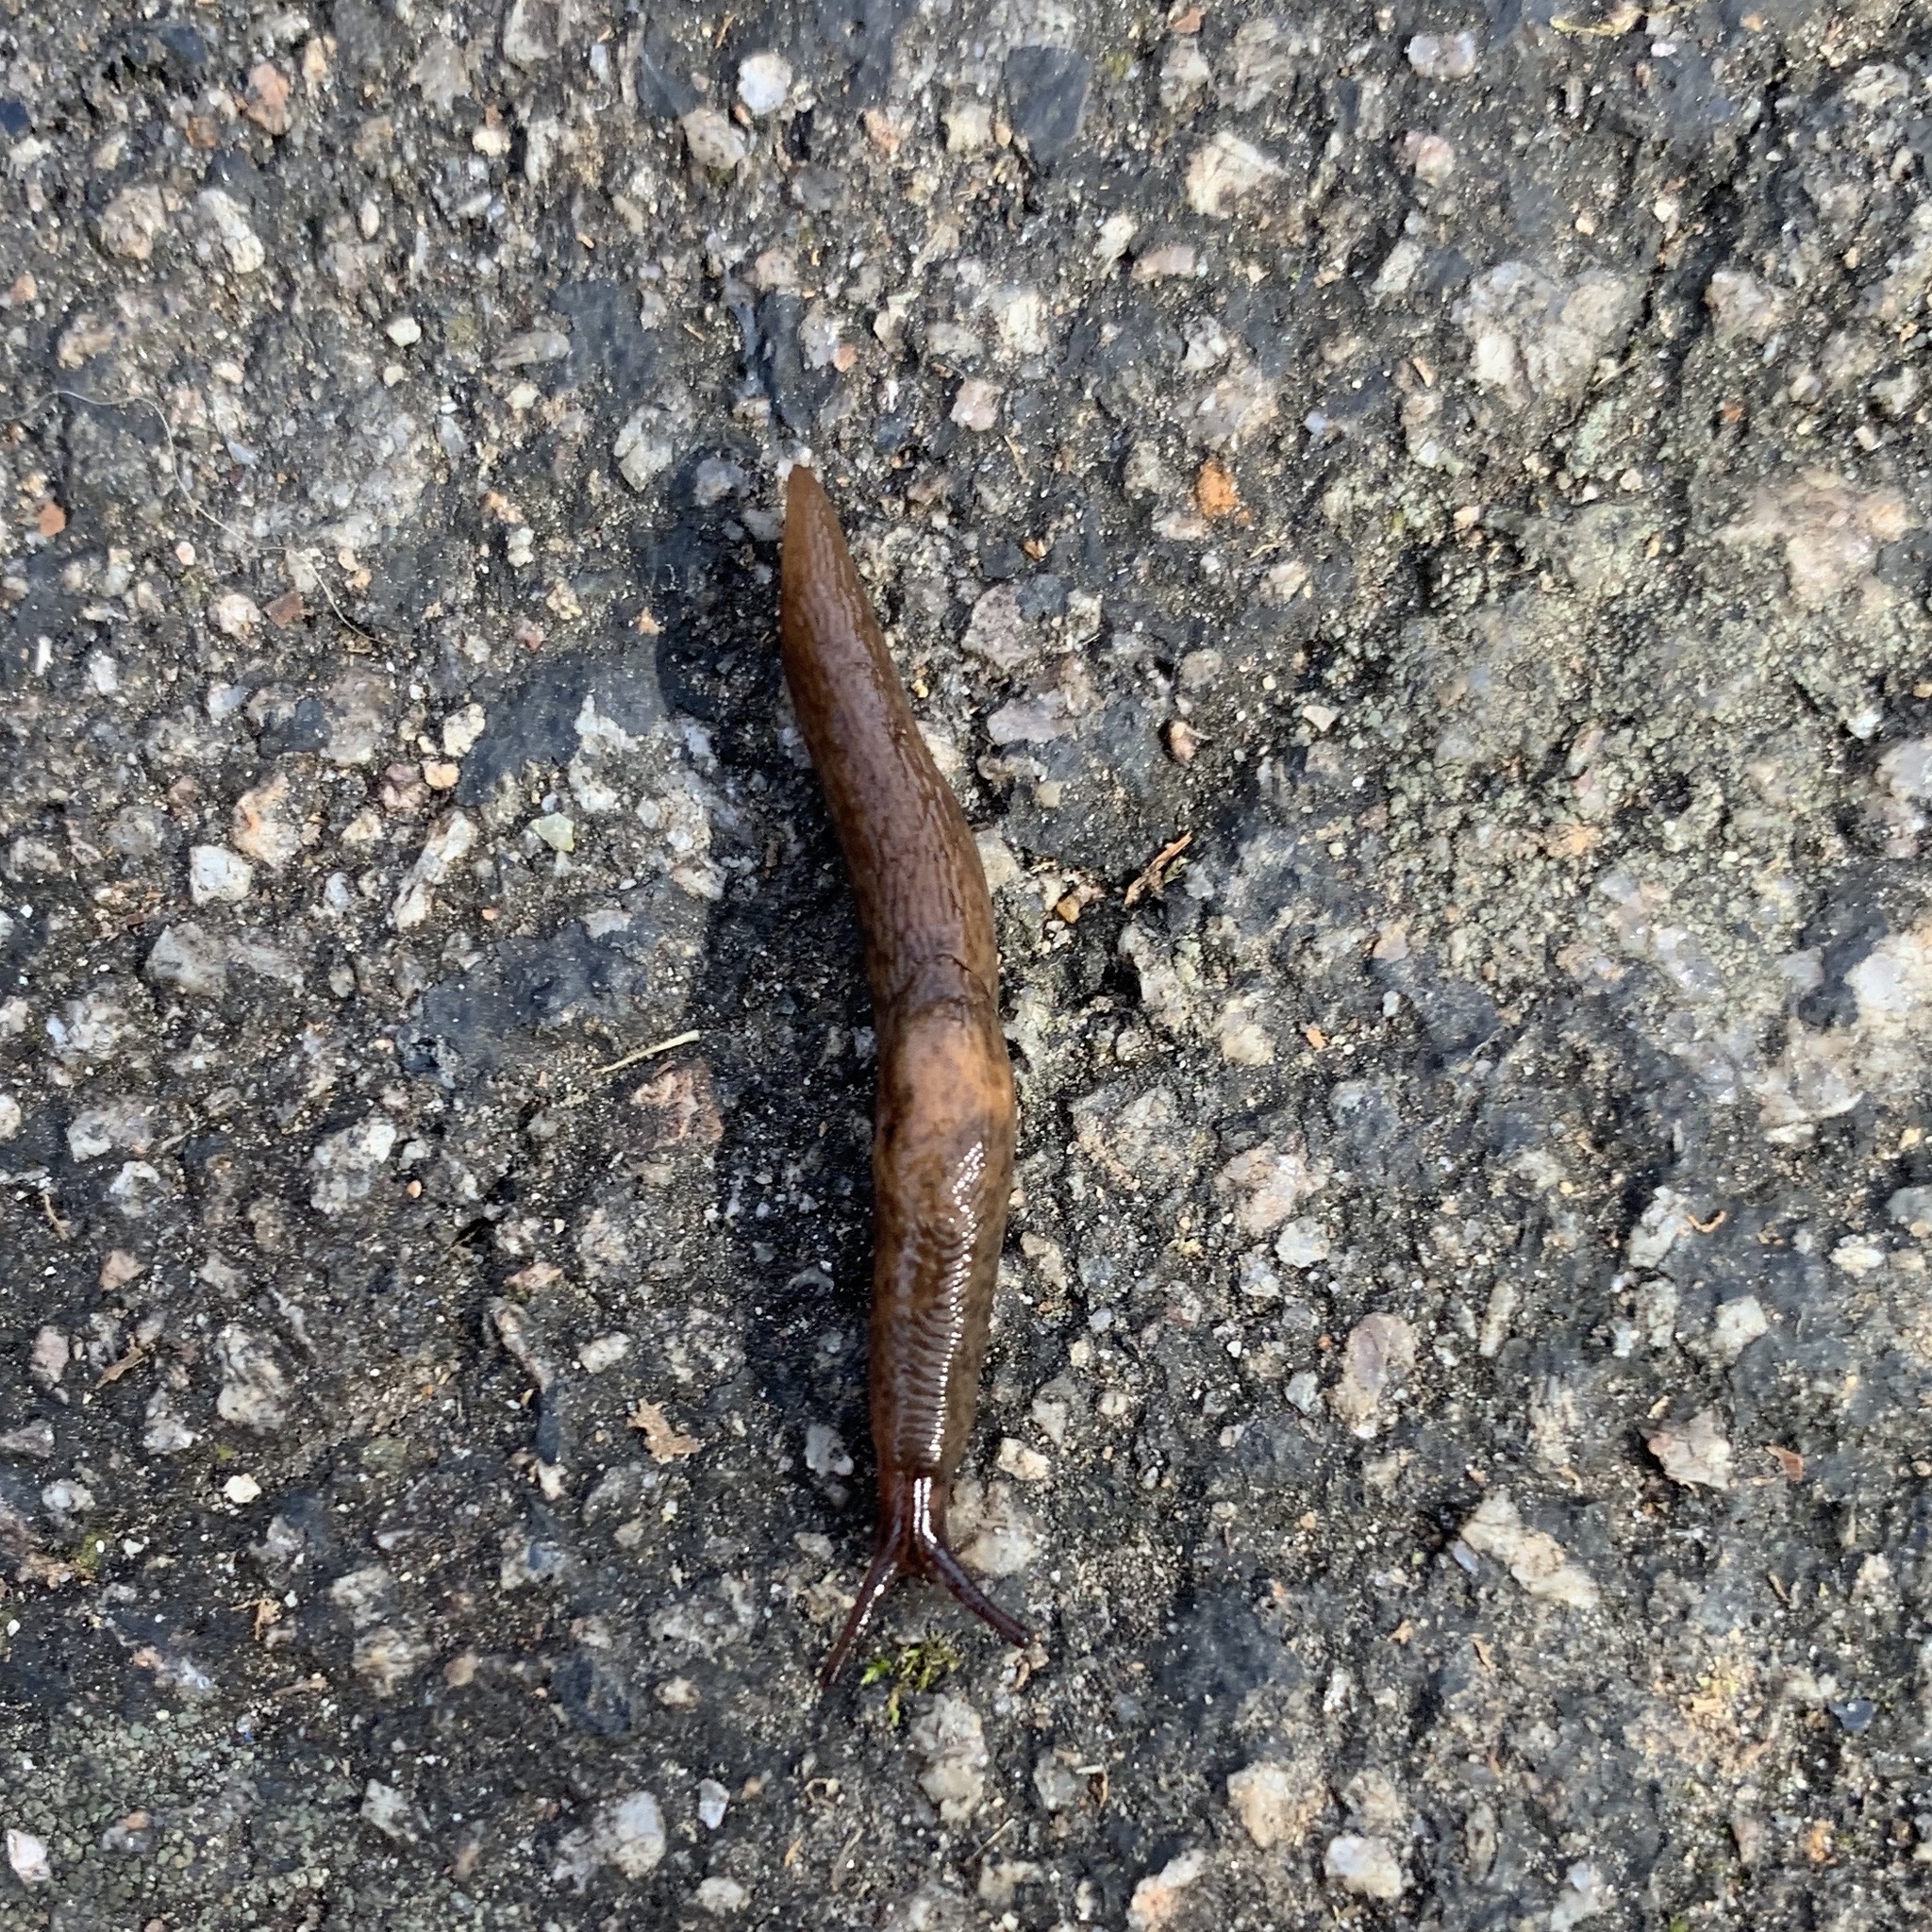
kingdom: Animalia
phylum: Mollusca
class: Gastropoda
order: Stylommatophora
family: Agriolimacidae
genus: Deroceras
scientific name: Deroceras laeve
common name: Marsh slug
